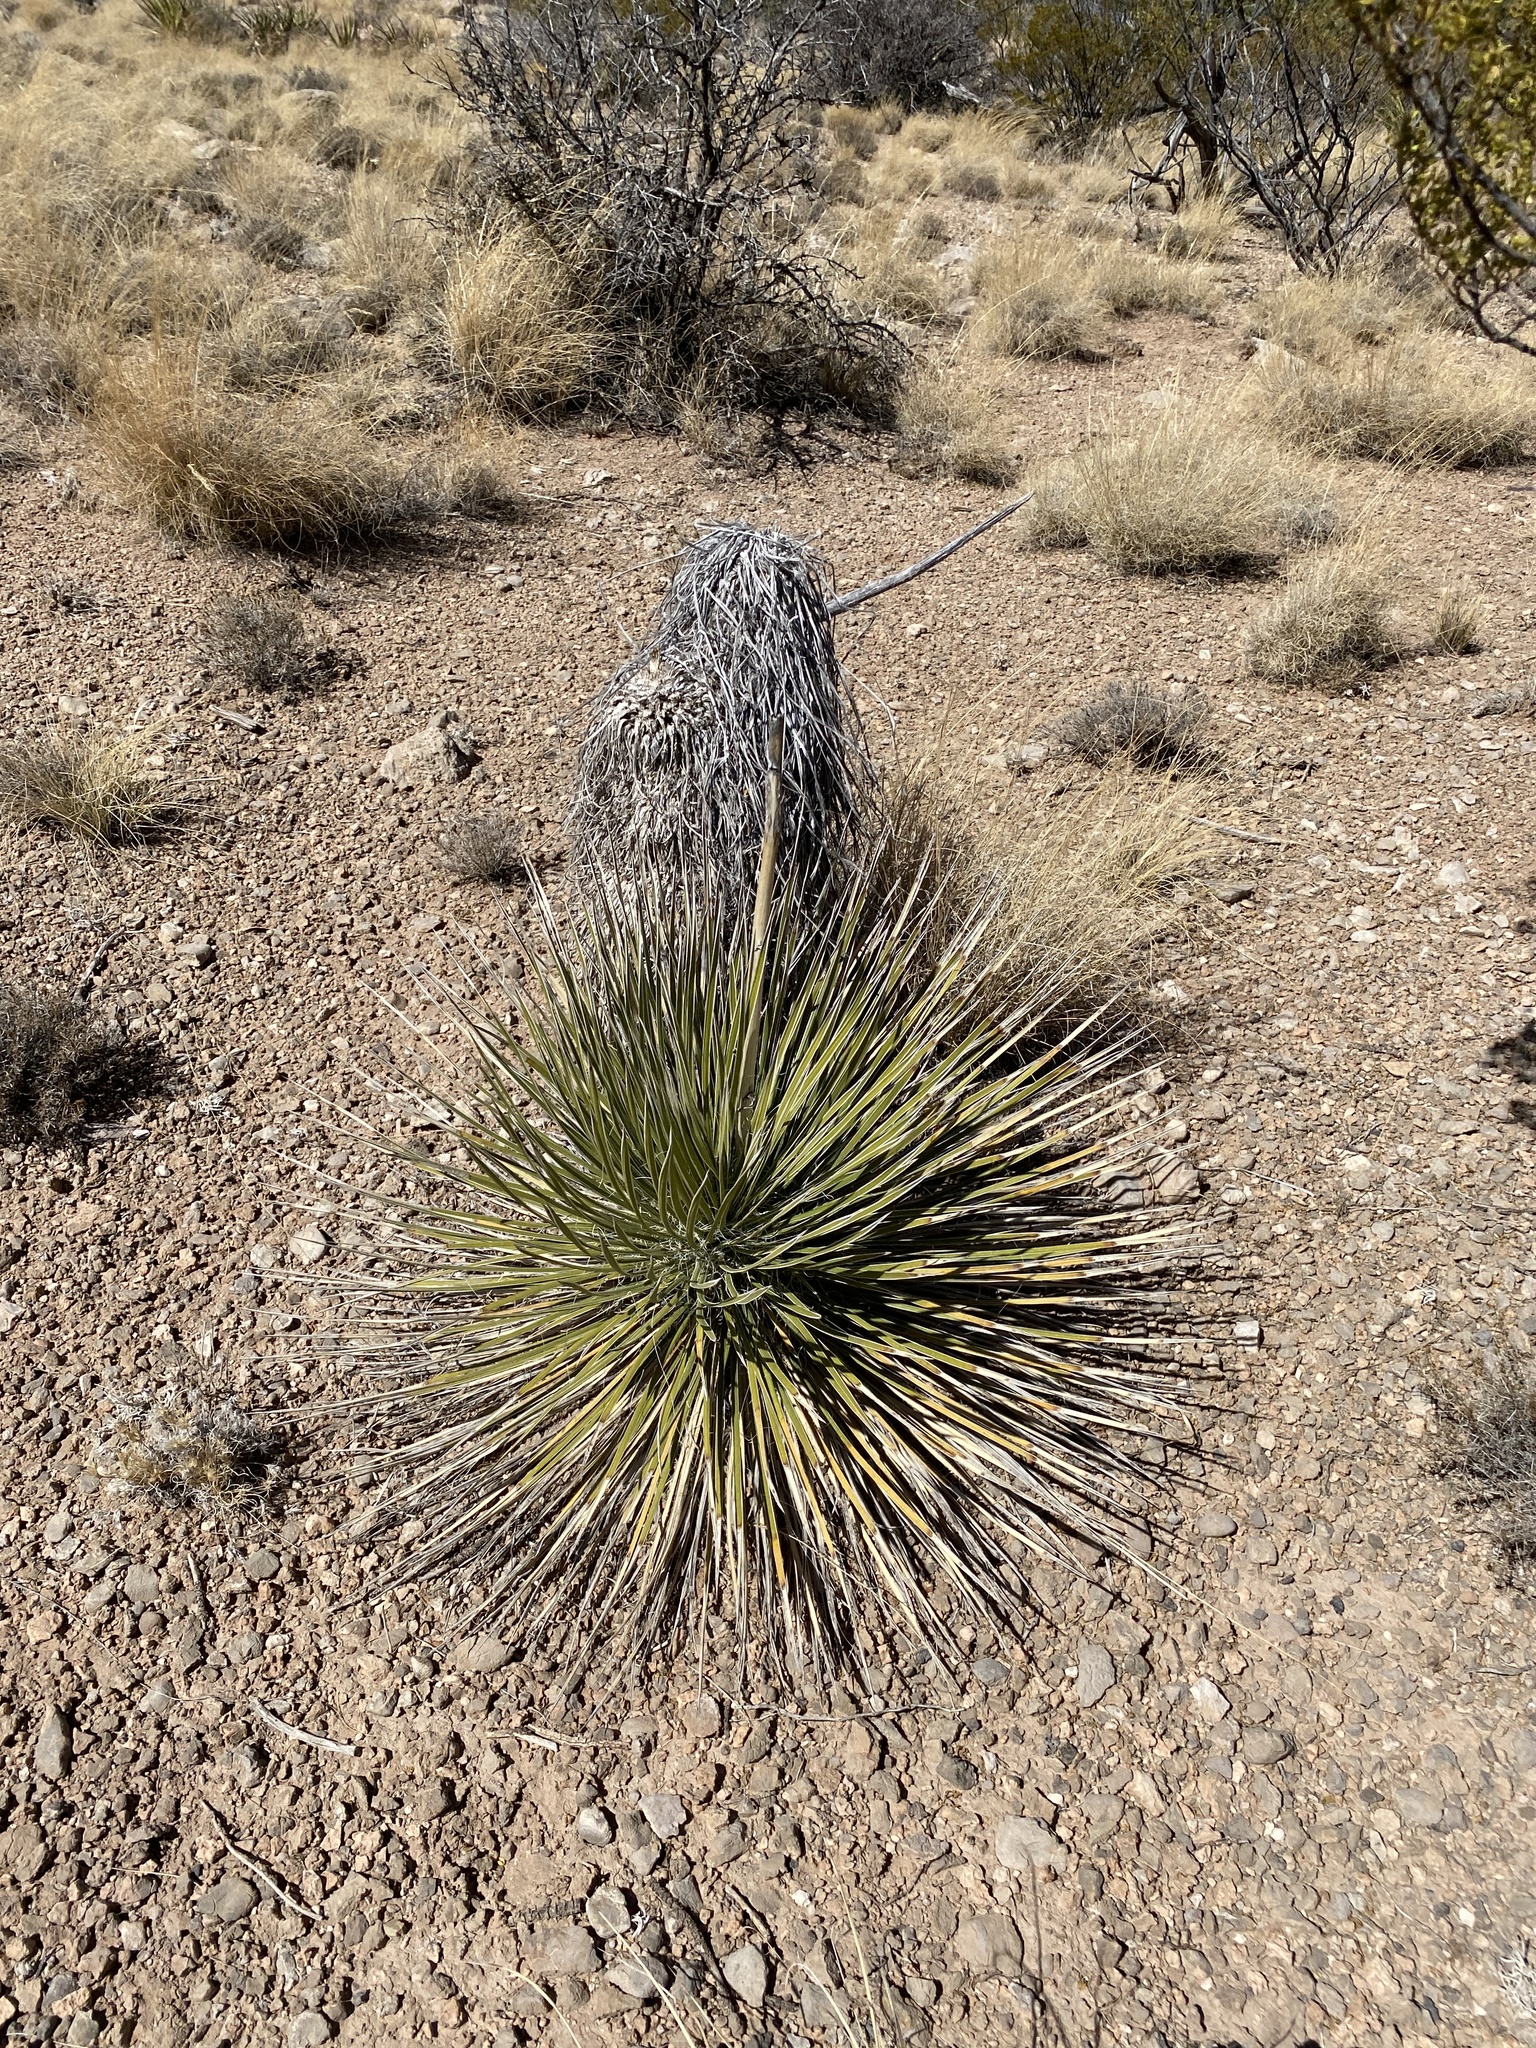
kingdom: Plantae
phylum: Tracheophyta
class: Liliopsida
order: Asparagales
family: Asparagaceae
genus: Yucca
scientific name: Yucca elata
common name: Palmella
